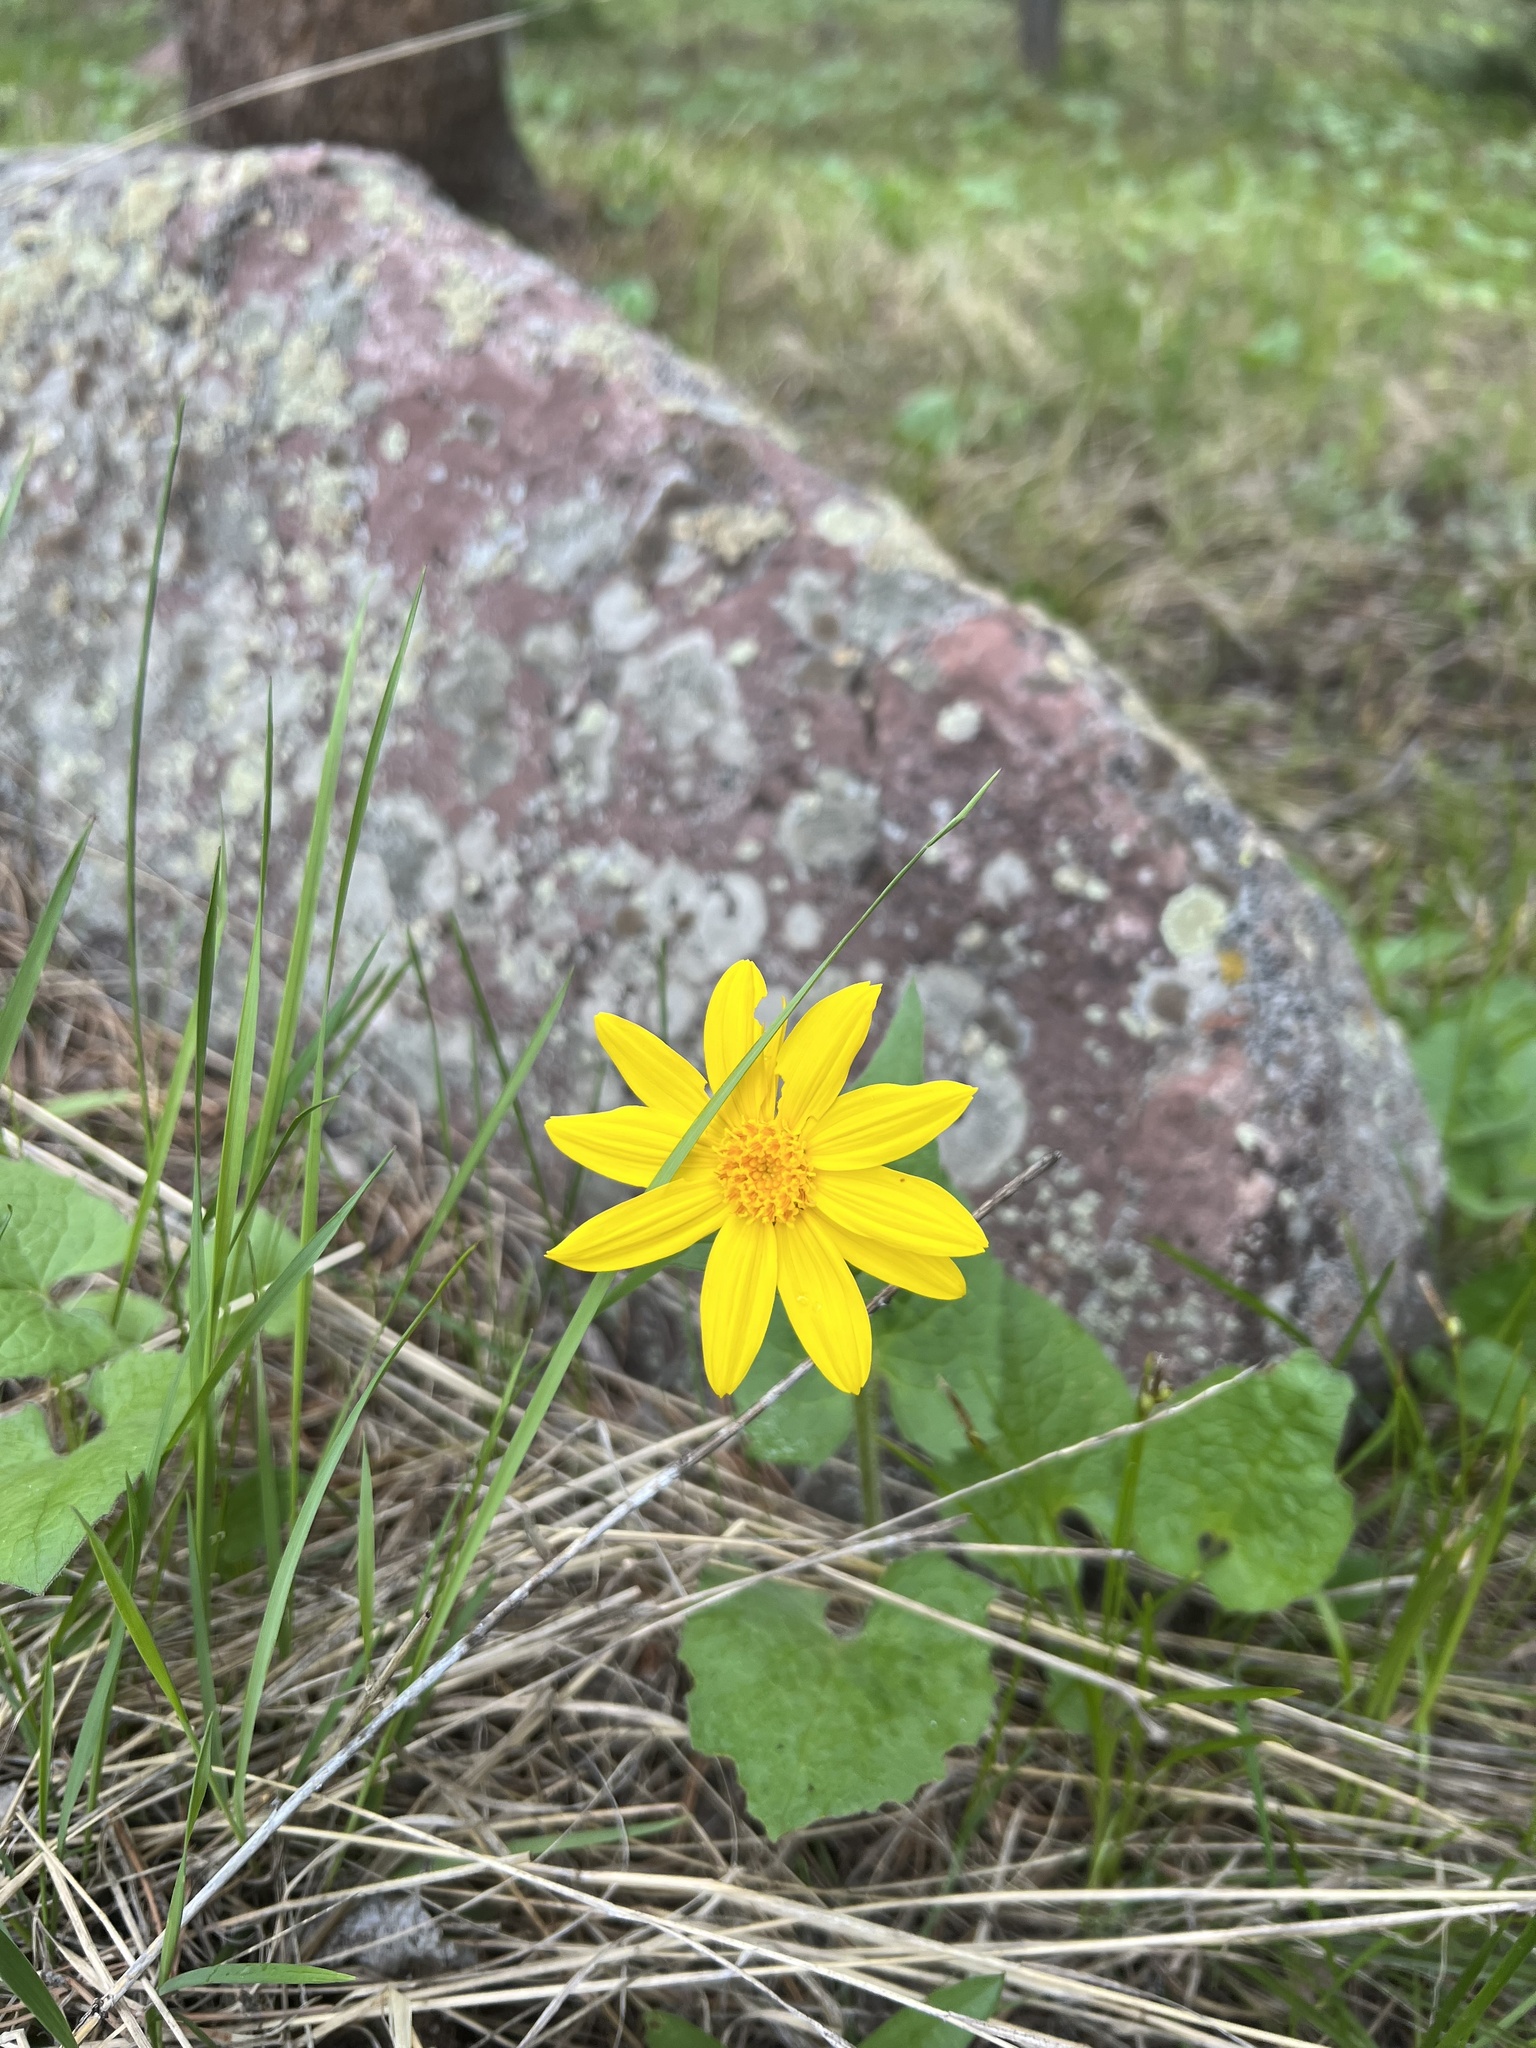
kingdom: Plantae
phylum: Tracheophyta
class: Magnoliopsida
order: Asterales
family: Asteraceae
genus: Arnica
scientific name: Arnica cordifolia
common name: Heart-leaf arnica
